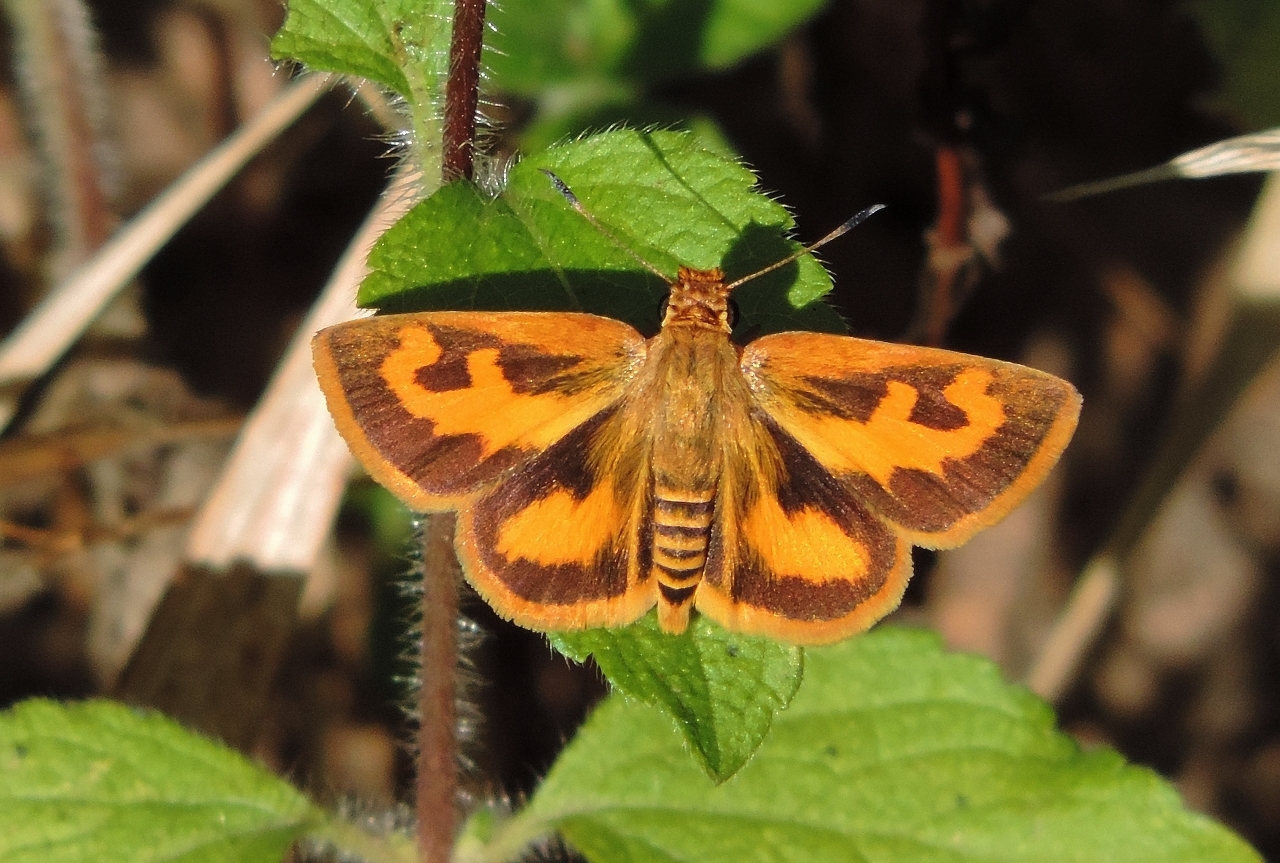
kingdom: Animalia
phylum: Arthropoda
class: Insecta
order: Lepidoptera
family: Hesperiidae
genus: Acada
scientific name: Acada biseriatus
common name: Axehead orange
